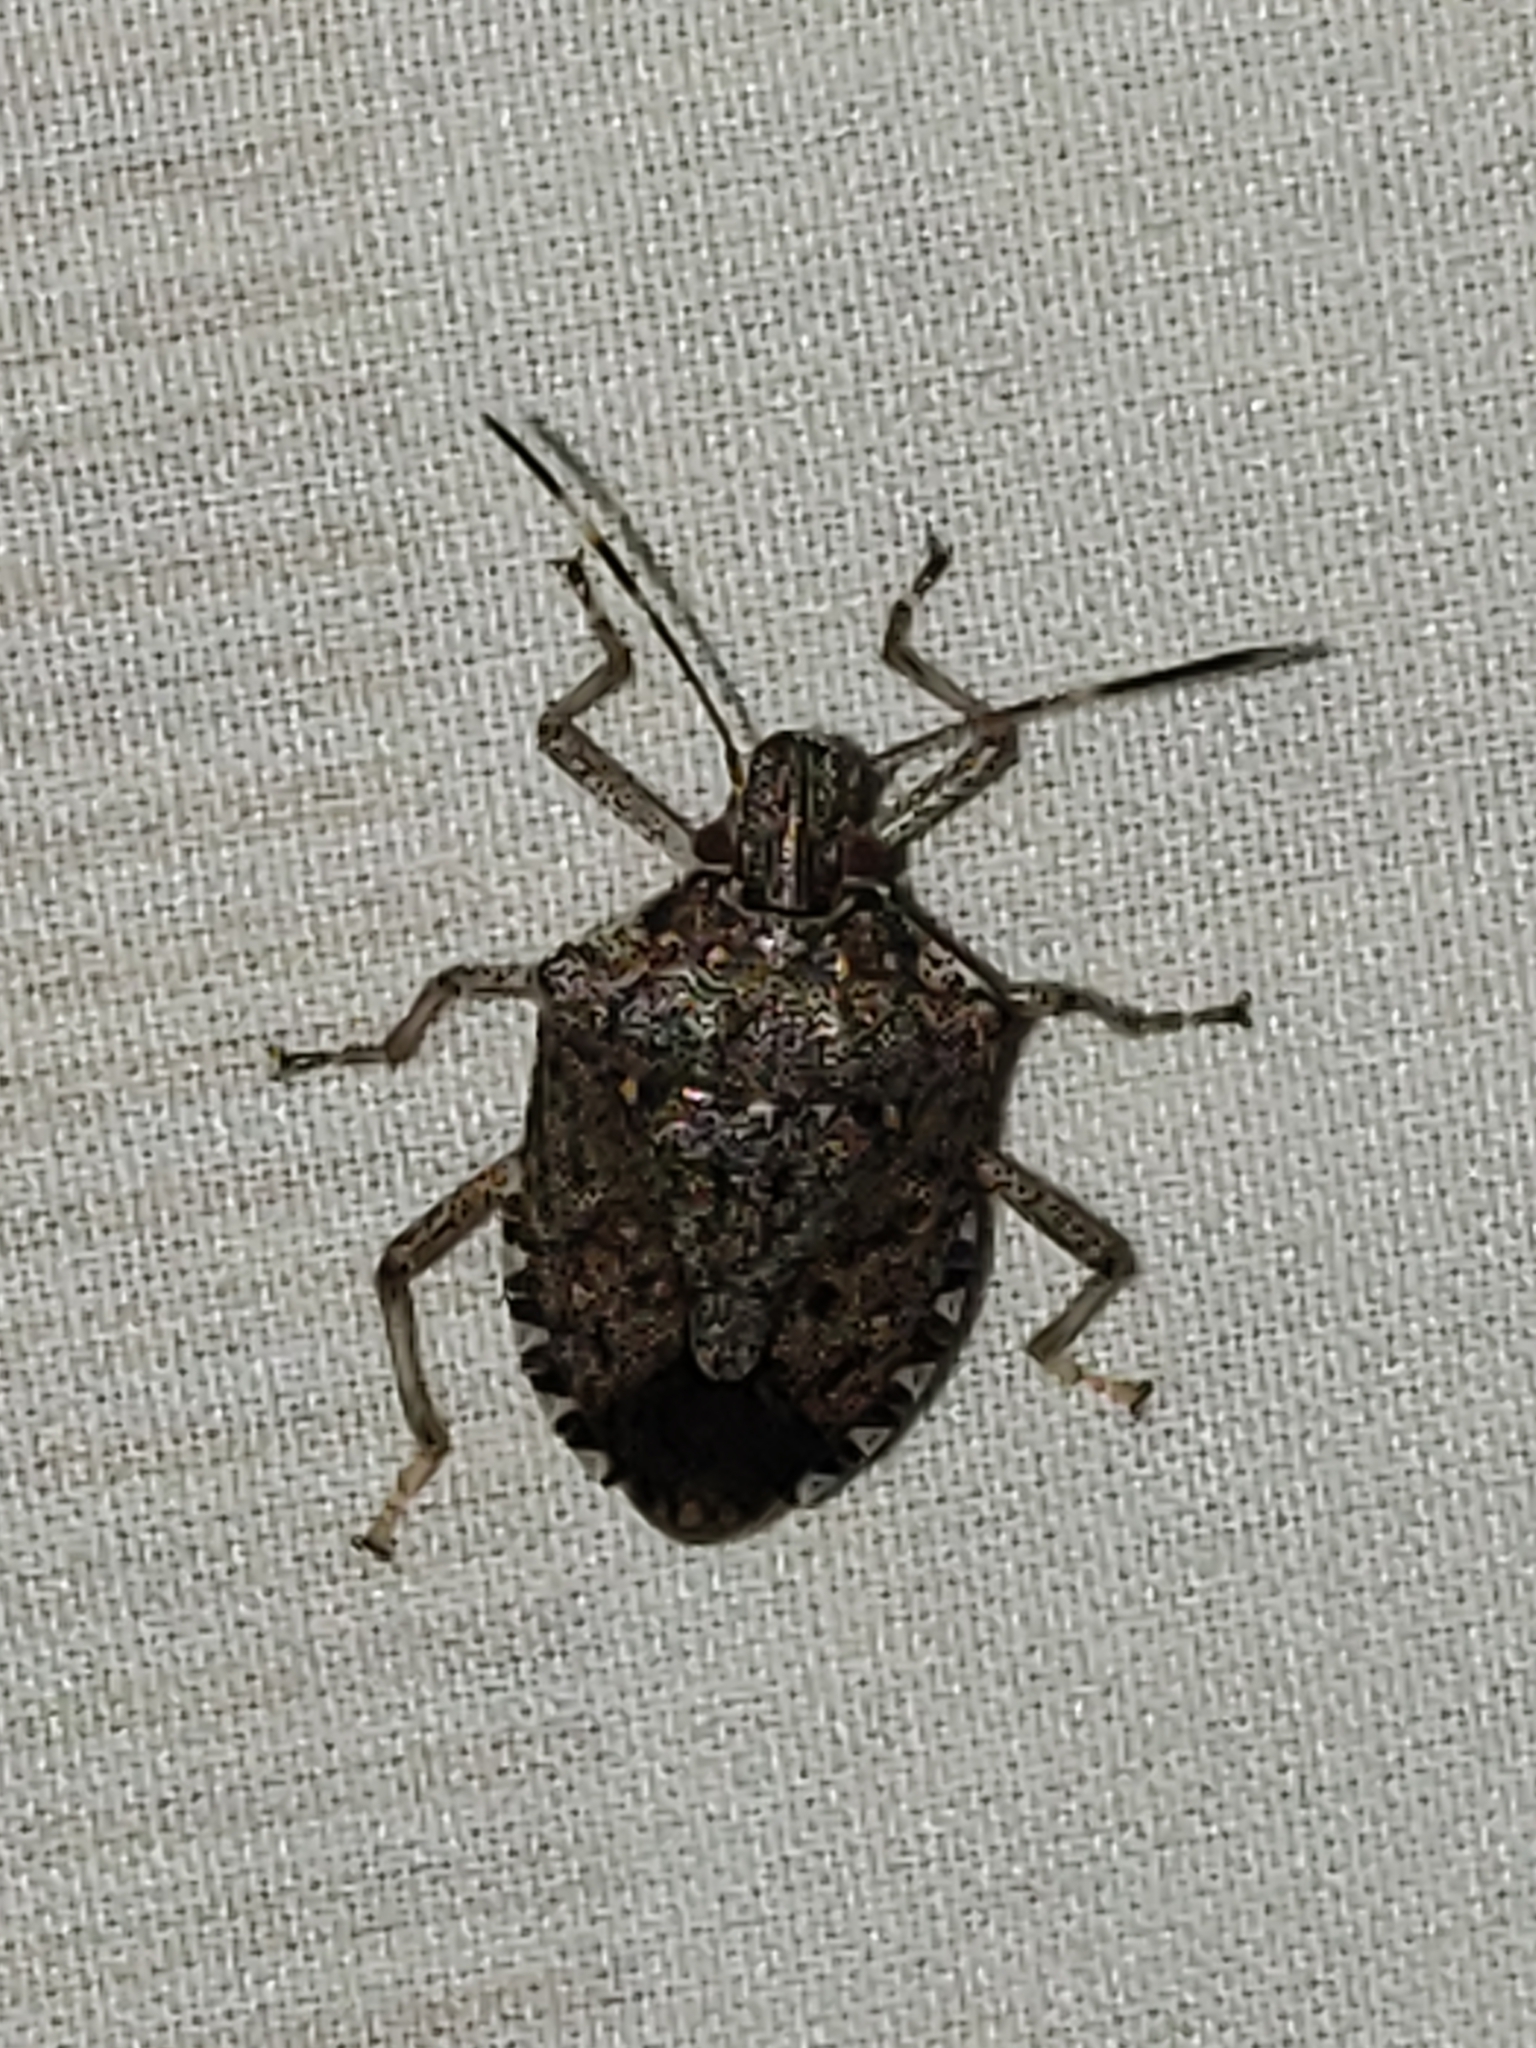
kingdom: Animalia
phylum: Arthropoda
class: Insecta
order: Hemiptera
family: Pentatomidae
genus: Halyomorpha
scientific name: Halyomorpha halys
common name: Brown marmorated stink bug
